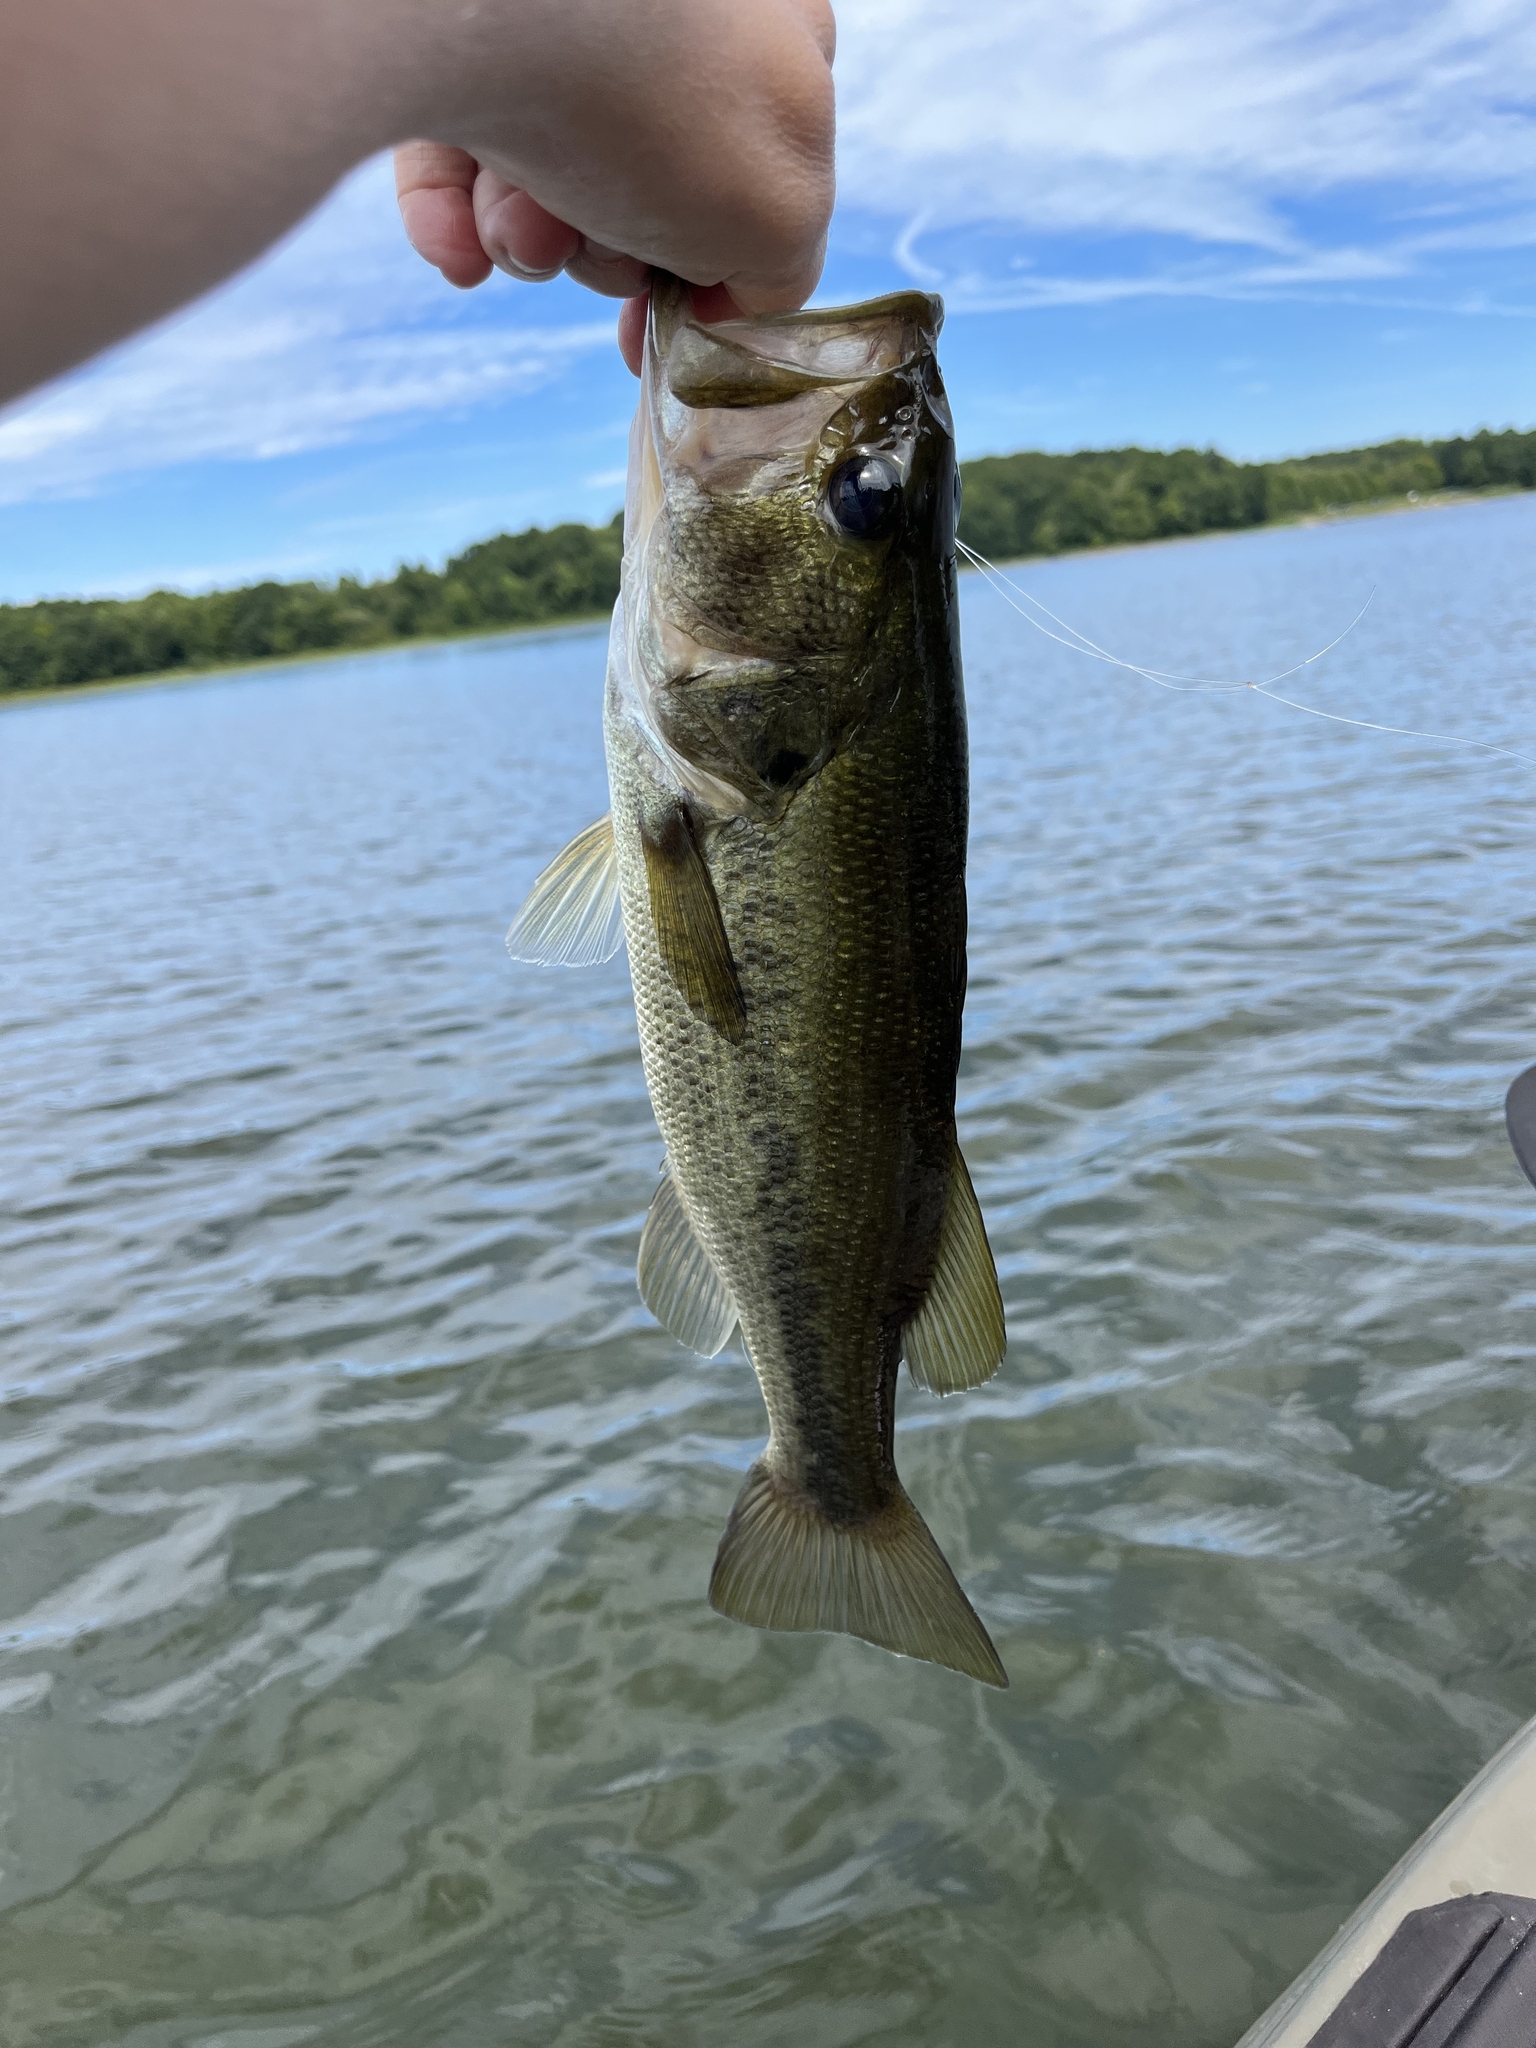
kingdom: Animalia
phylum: Chordata
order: Perciformes
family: Centrarchidae
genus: Micropterus
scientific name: Micropterus
